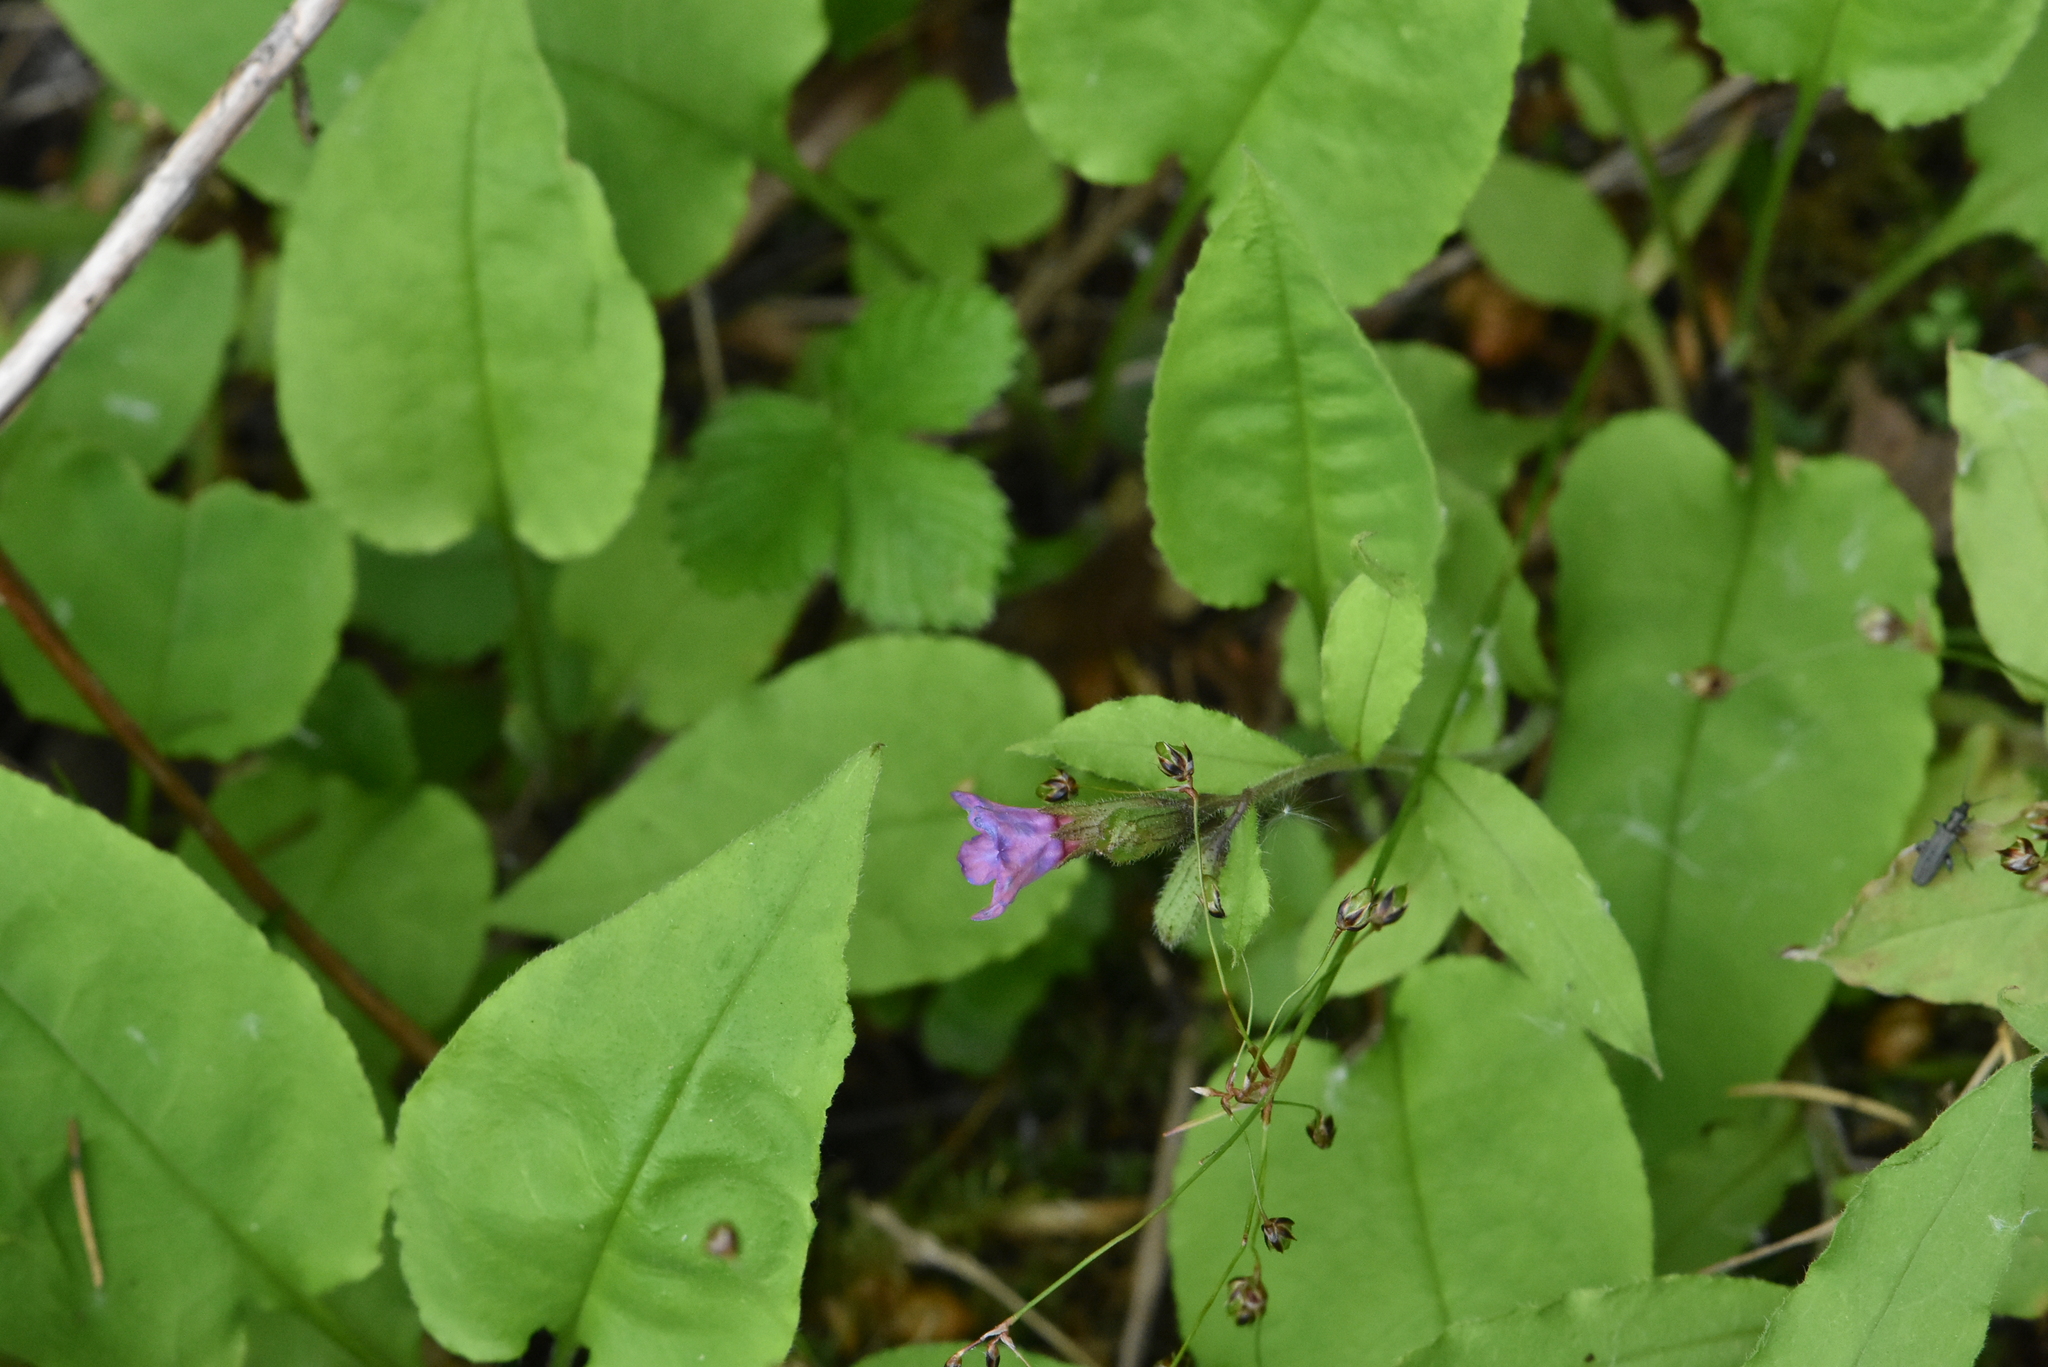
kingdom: Plantae
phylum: Tracheophyta
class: Magnoliopsida
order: Boraginales
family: Boraginaceae
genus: Pulmonaria
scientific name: Pulmonaria obscura
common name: Suffolk lungwort
